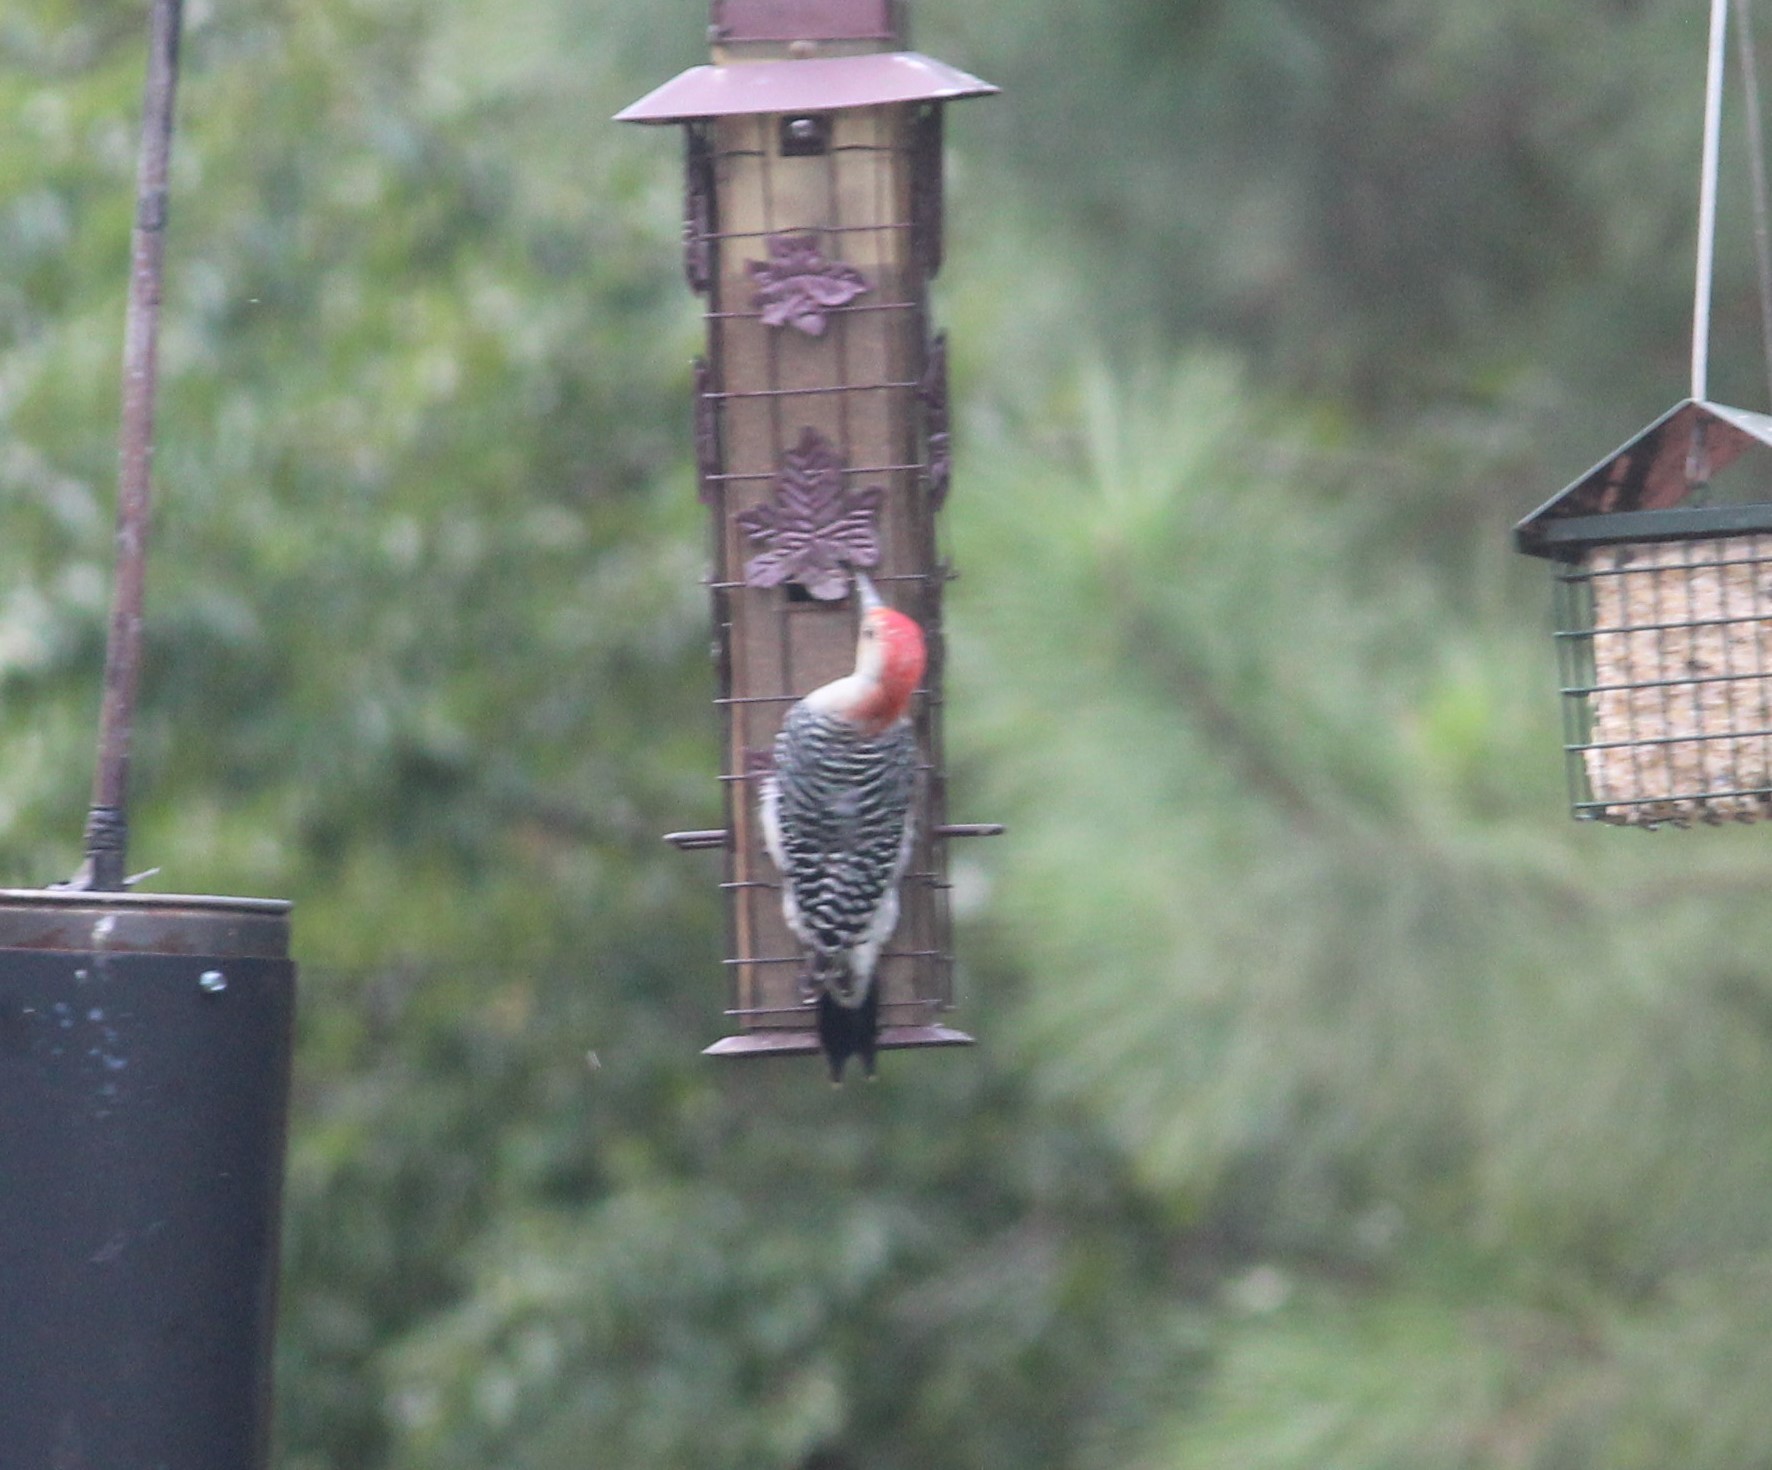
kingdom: Animalia
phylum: Chordata
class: Aves
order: Piciformes
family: Picidae
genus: Melanerpes
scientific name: Melanerpes carolinus
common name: Red-bellied woodpecker
